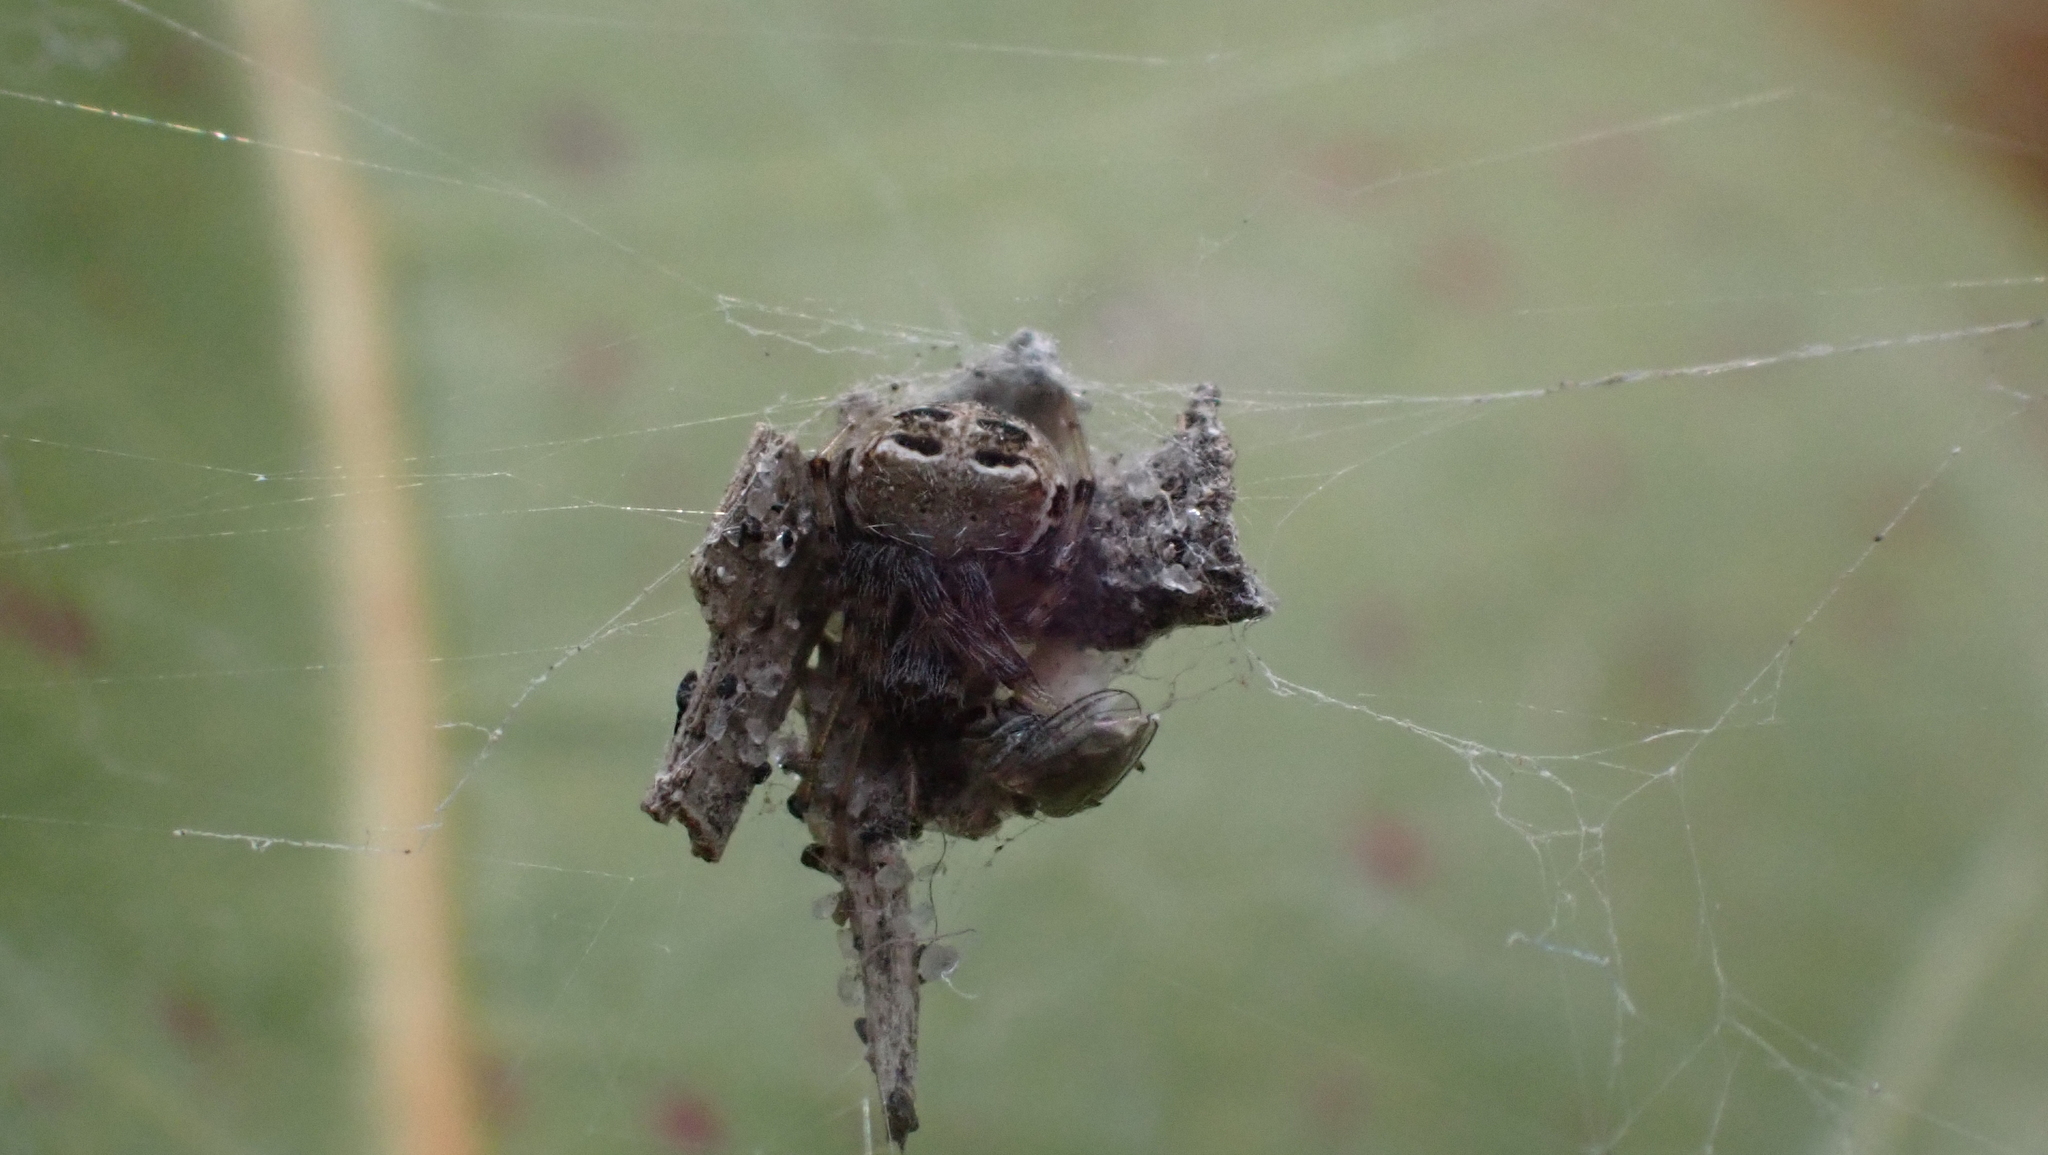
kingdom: Animalia
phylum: Arthropoda
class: Arachnida
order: Araneae
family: Araneidae
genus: Metepeira
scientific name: Metepeira datona
